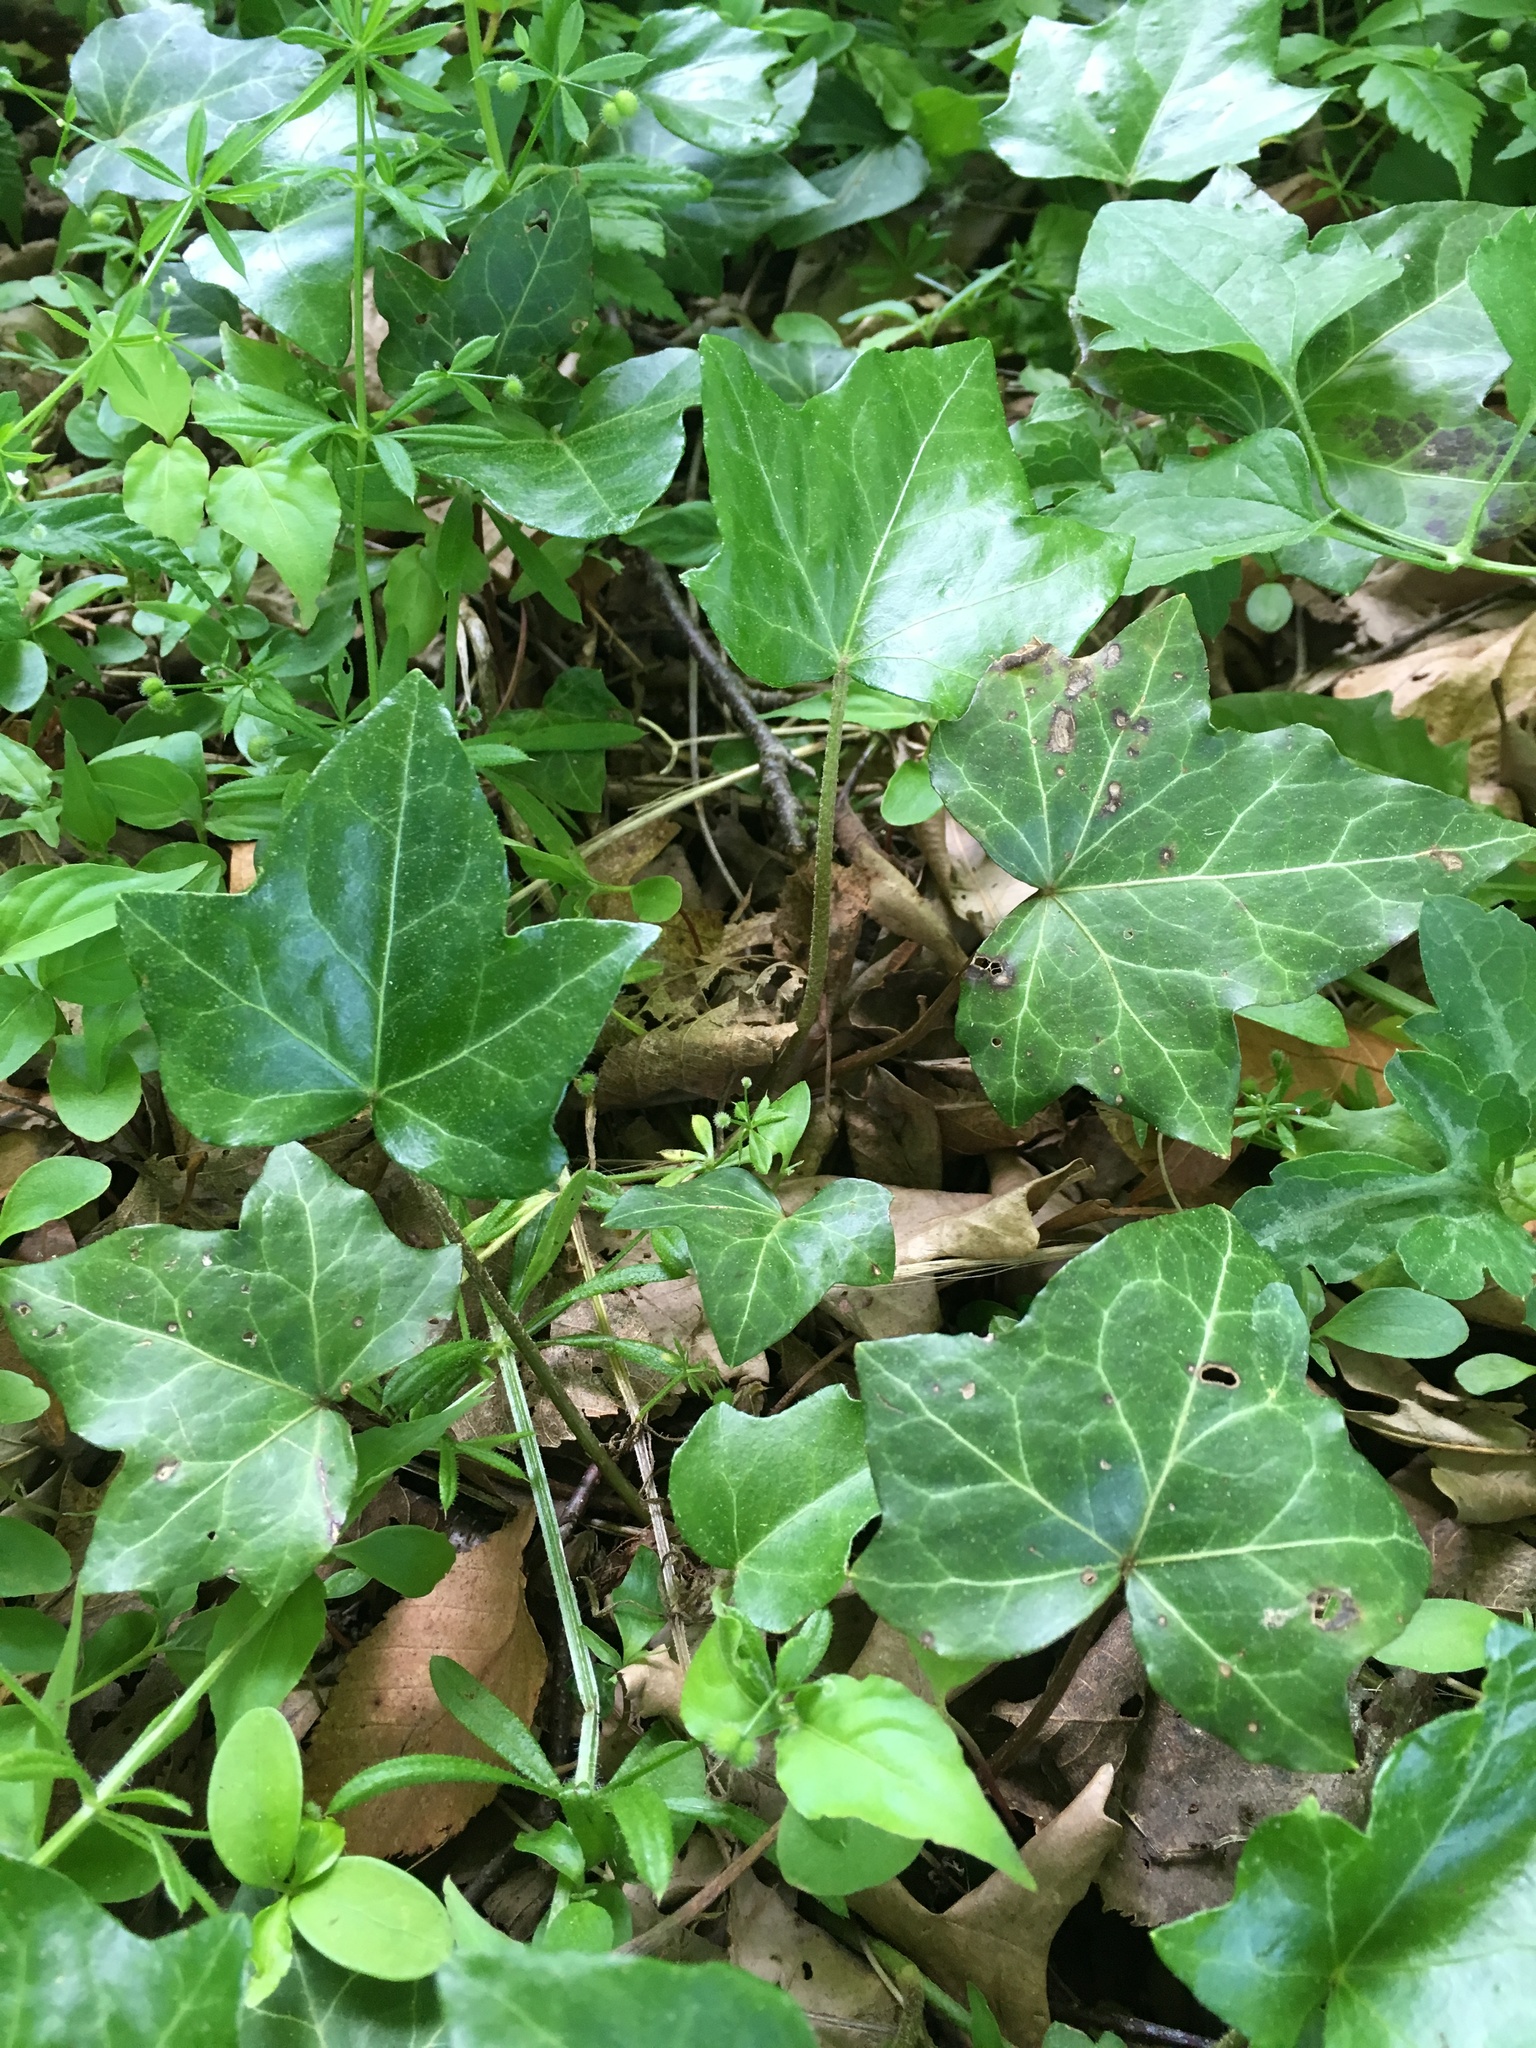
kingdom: Plantae
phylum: Tracheophyta
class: Magnoliopsida
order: Apiales
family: Araliaceae
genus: Hedera
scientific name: Hedera helix
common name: Ivy
